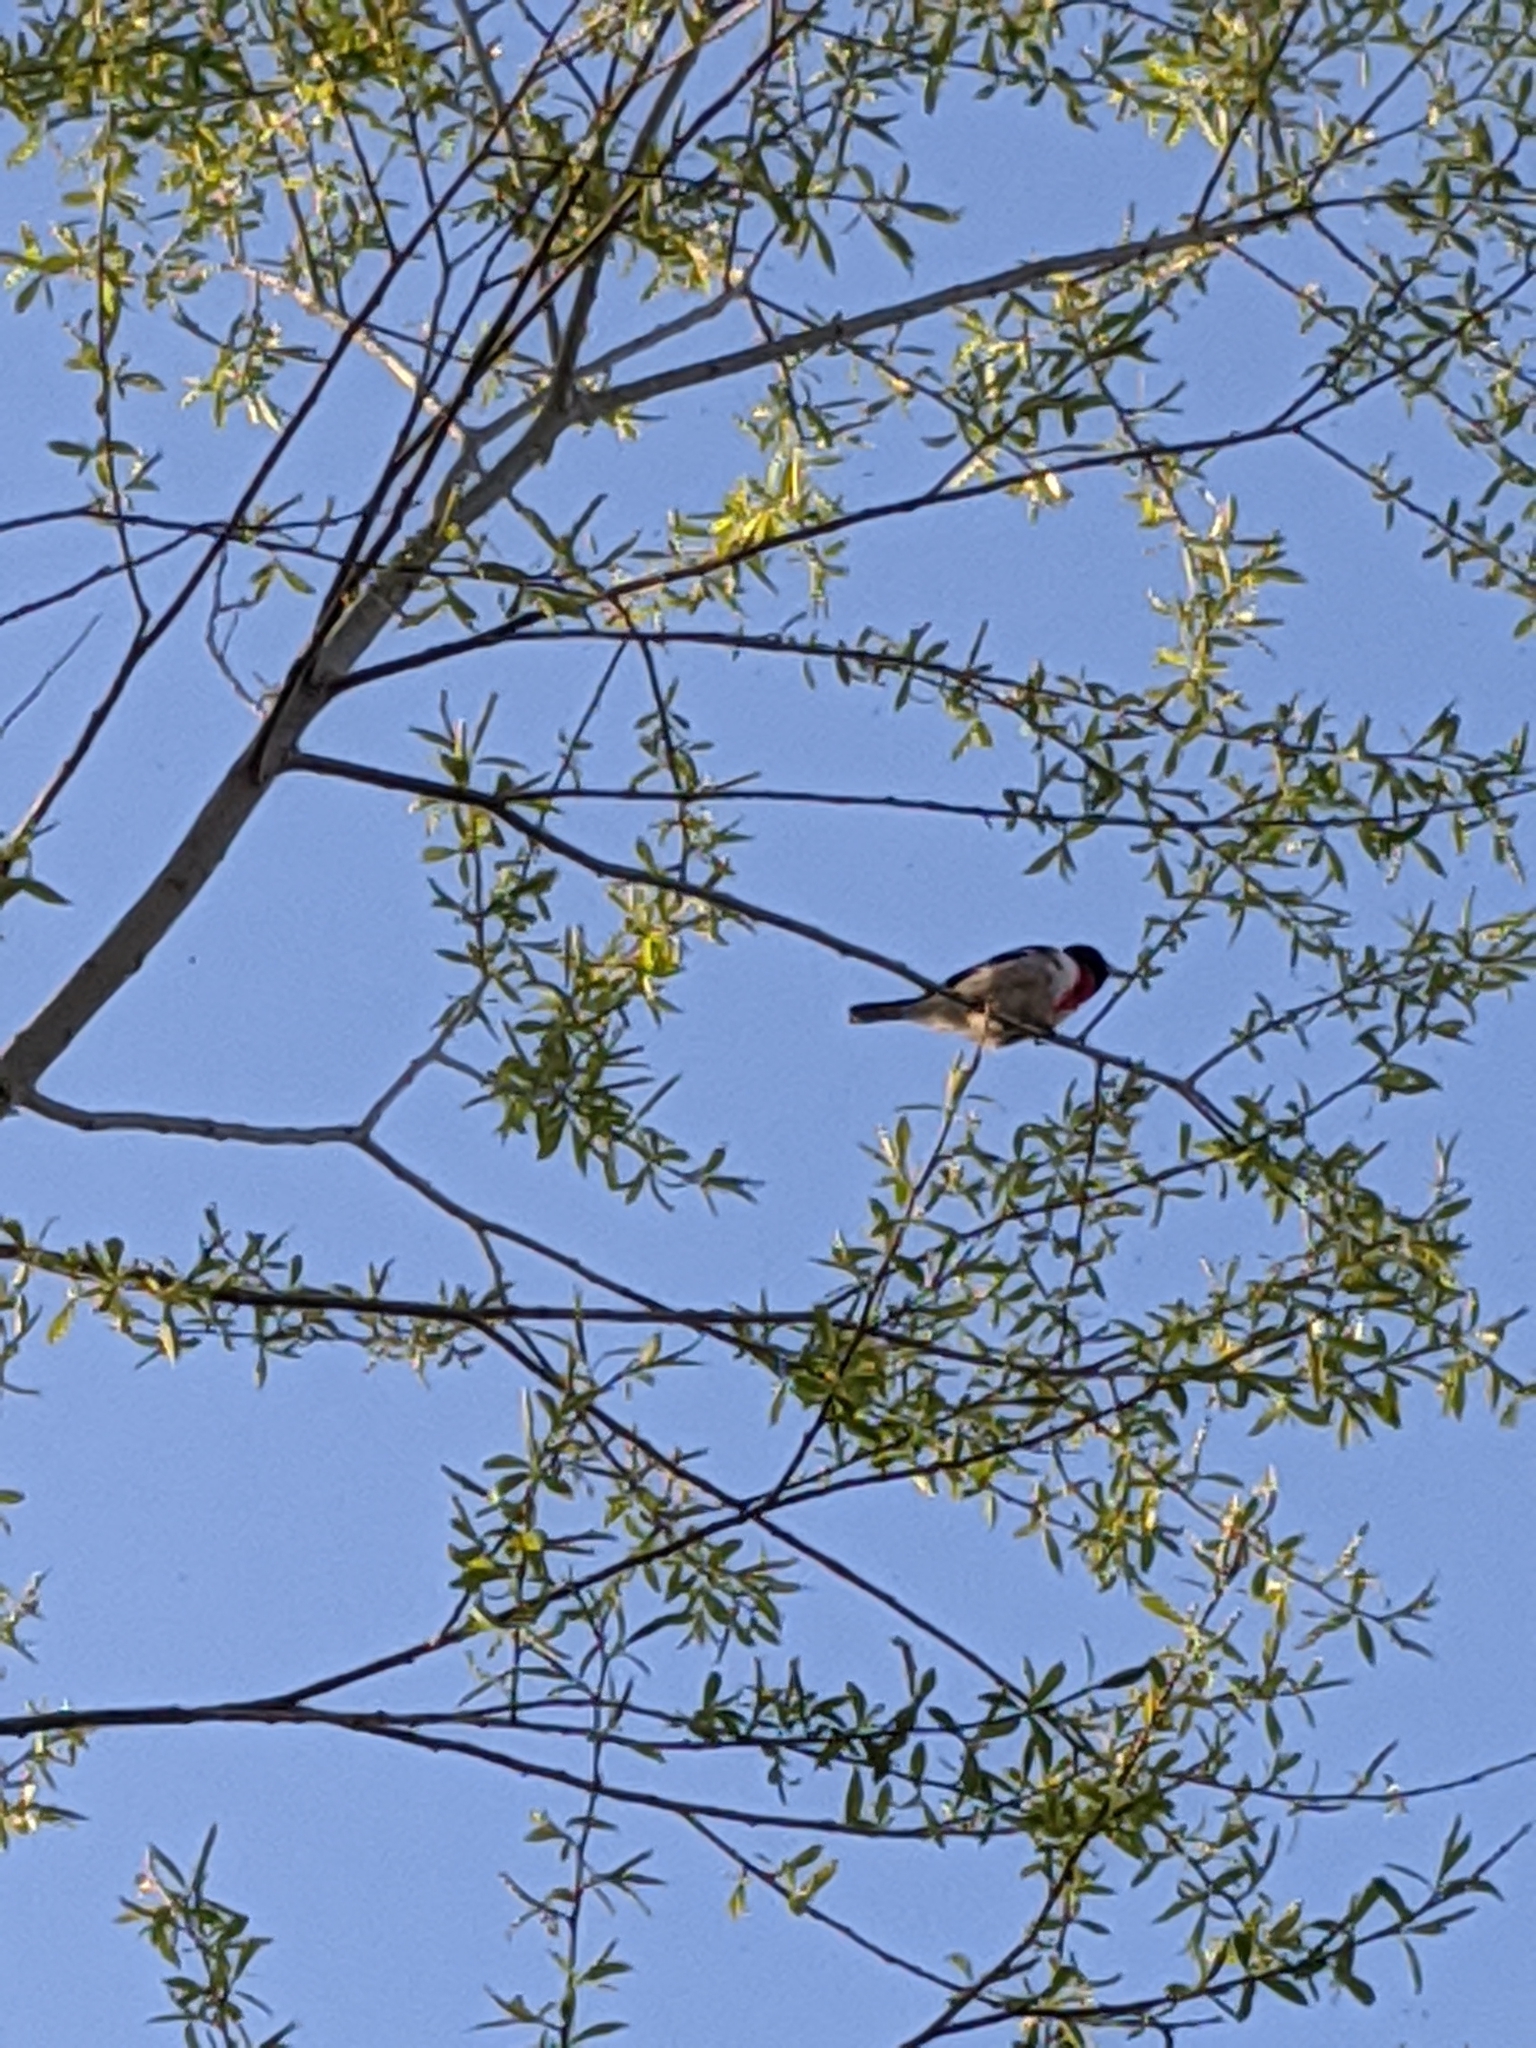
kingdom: Animalia
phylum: Chordata
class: Aves
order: Passeriformes
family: Cardinalidae
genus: Pheucticus
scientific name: Pheucticus ludovicianus
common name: Rose-breasted grosbeak
